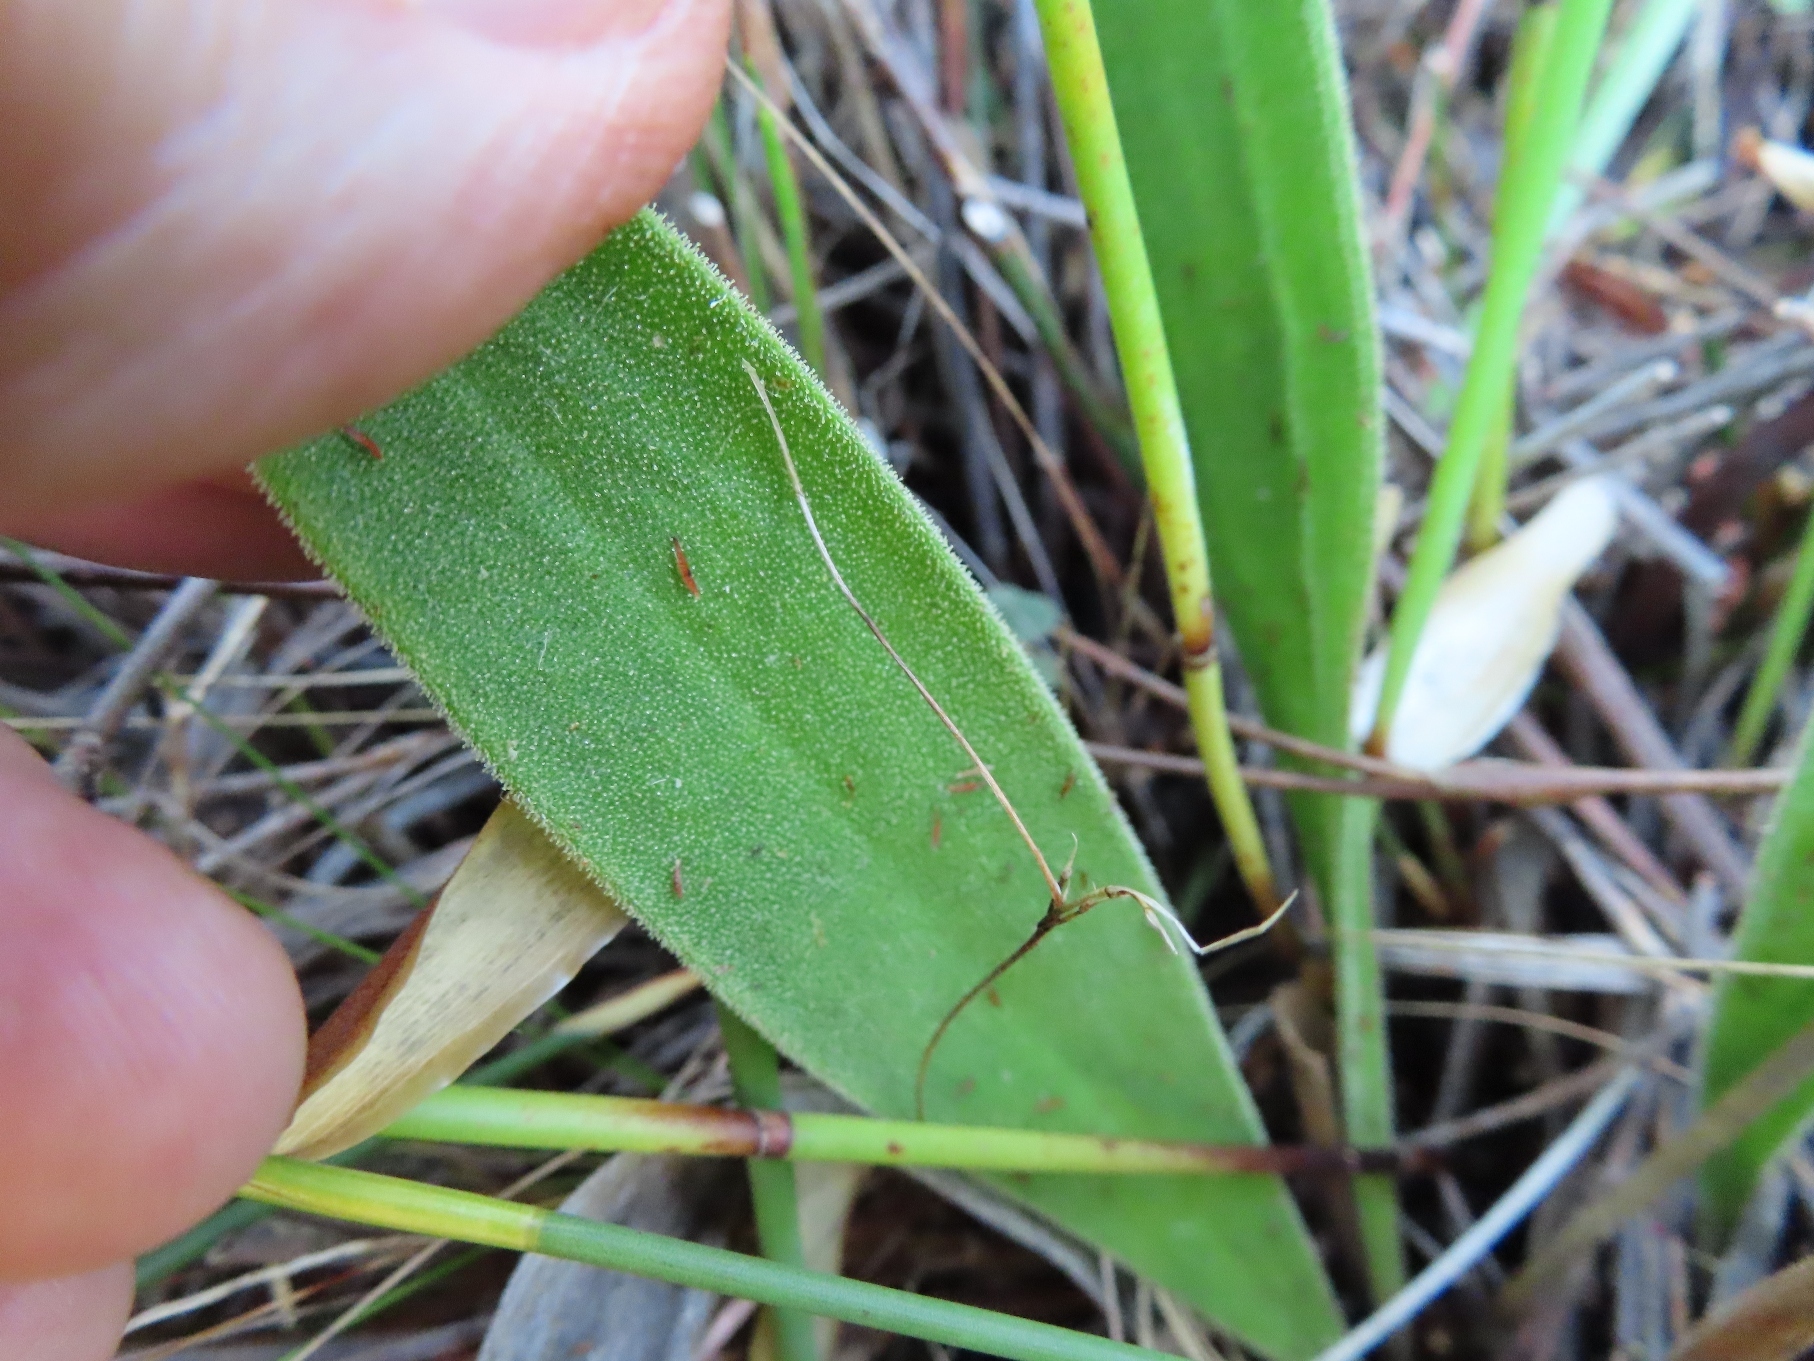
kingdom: Plantae
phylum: Tracheophyta
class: Magnoliopsida
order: Asterales
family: Asteraceae
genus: Corymbium
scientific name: Corymbium congestum
